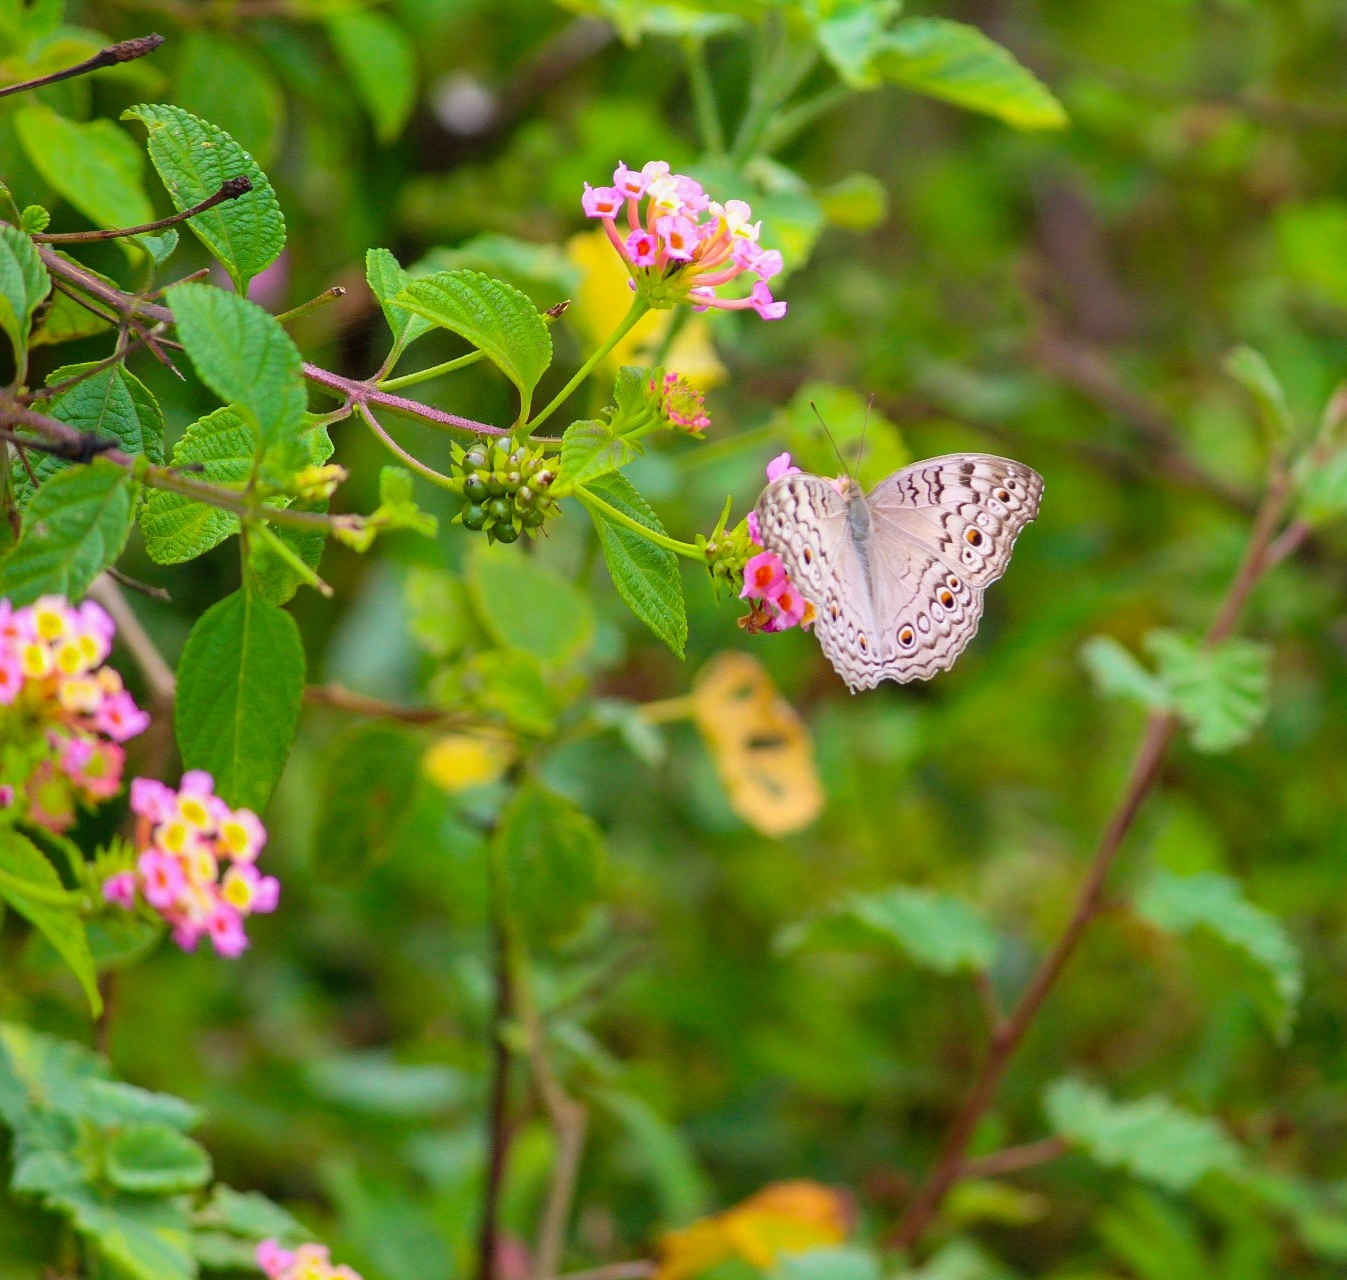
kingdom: Animalia
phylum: Arthropoda
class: Insecta
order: Lepidoptera
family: Nymphalidae
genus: Junonia
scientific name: Junonia atlites
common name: Grey pansy
